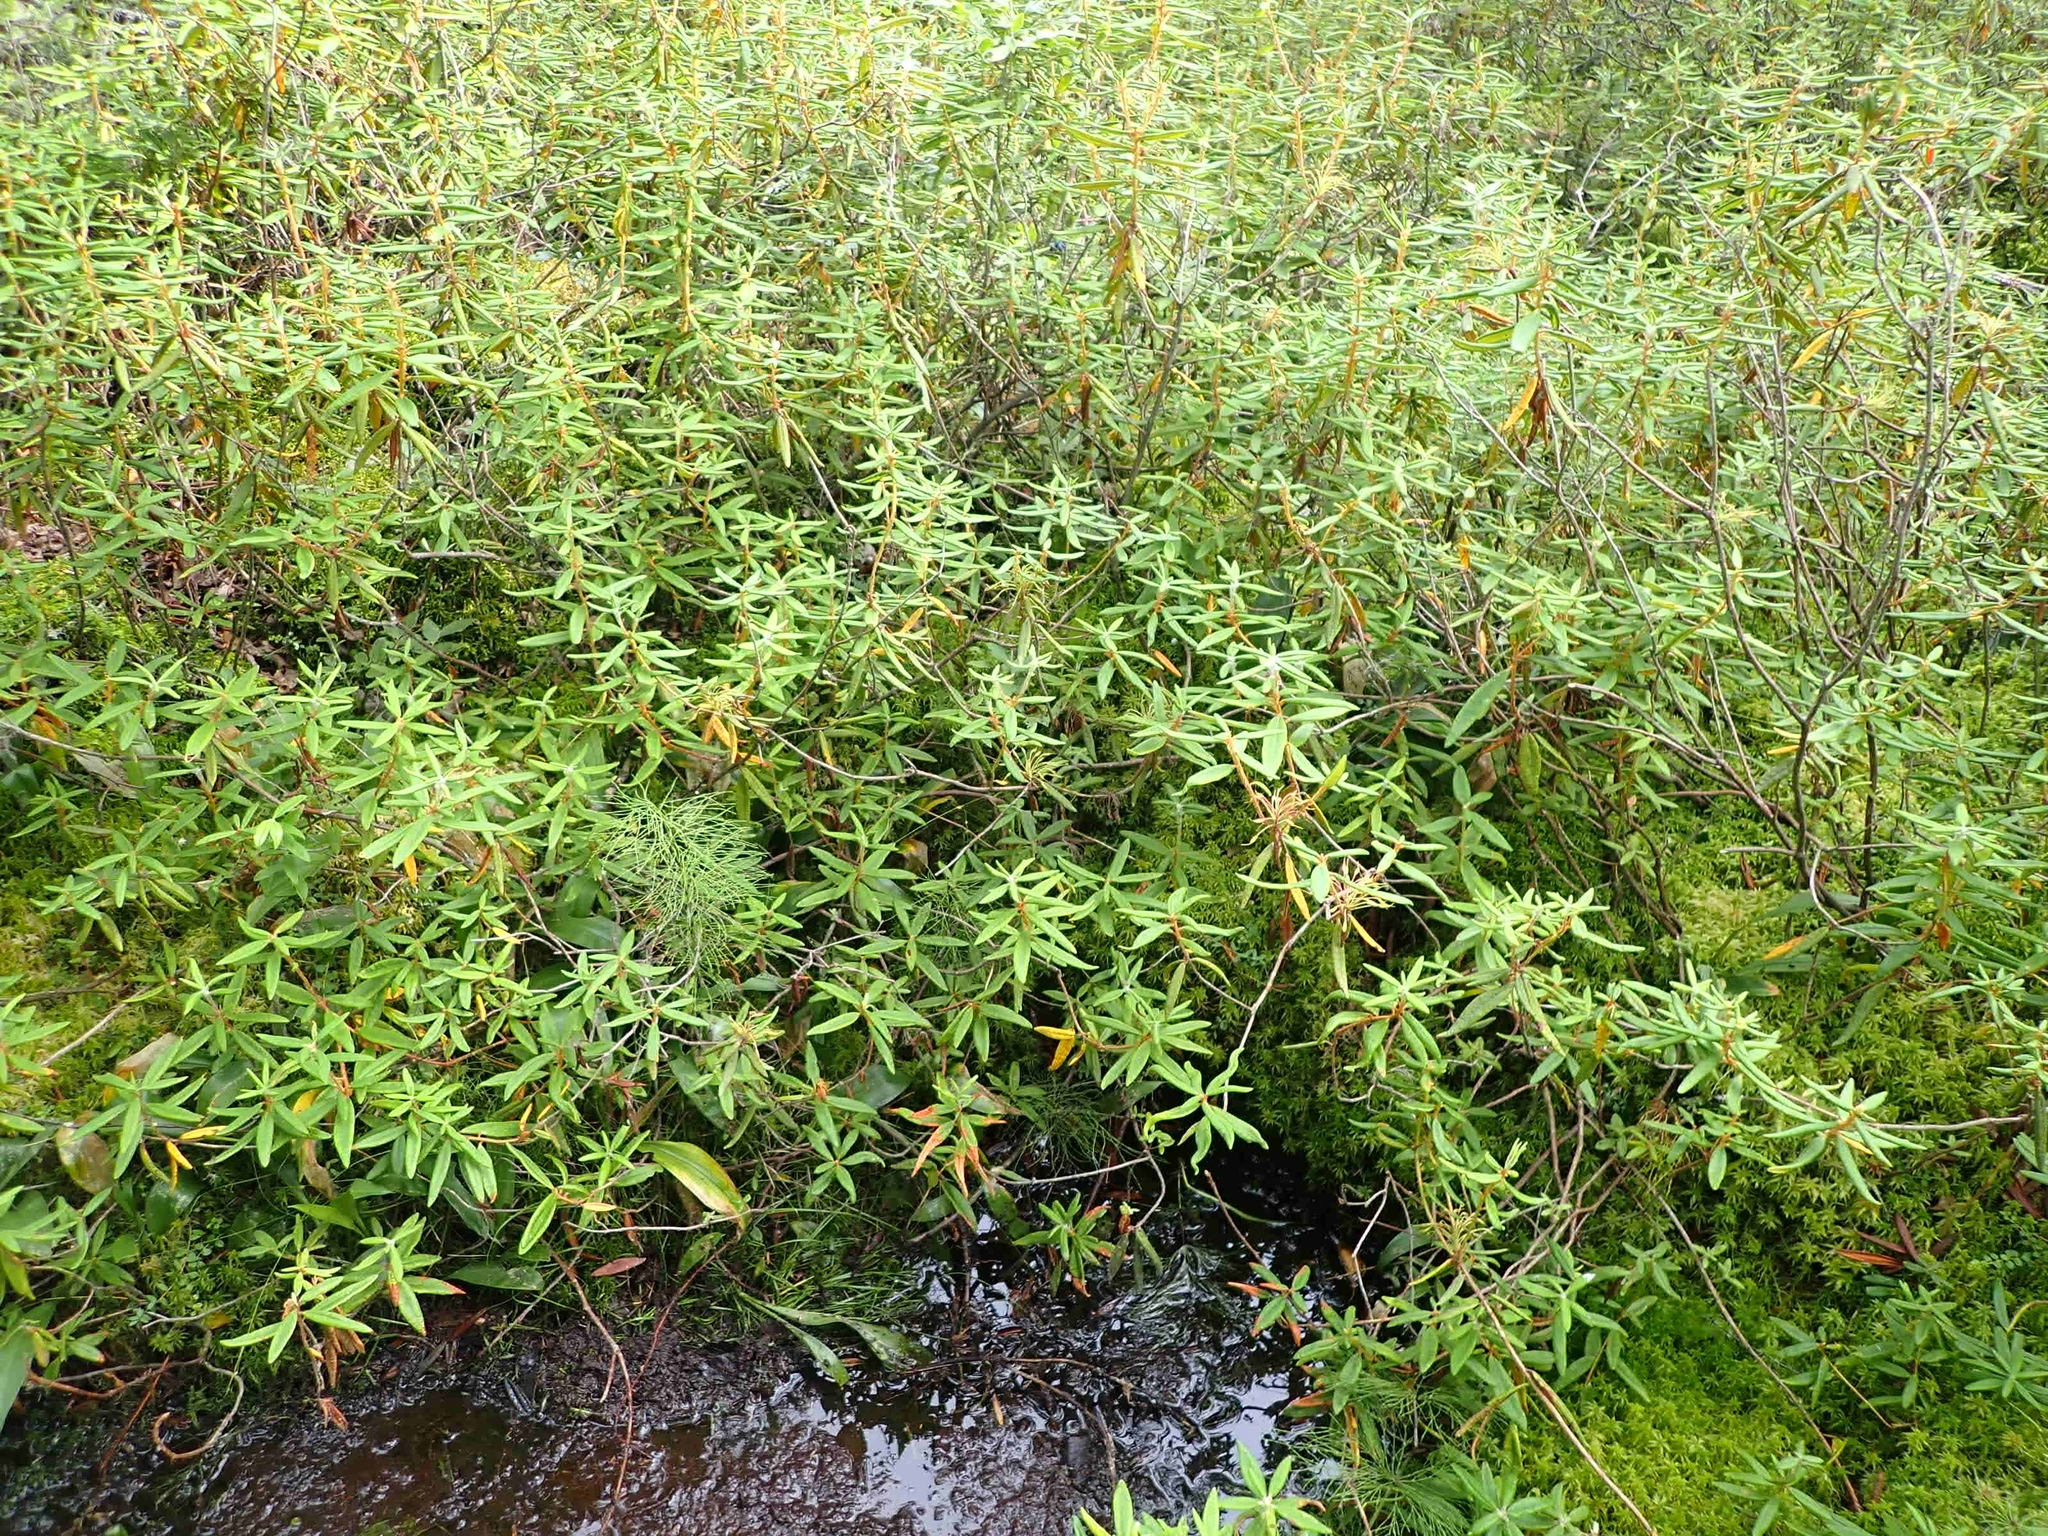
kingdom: Plantae
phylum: Tracheophyta
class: Magnoliopsida
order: Ericales
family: Ericaceae
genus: Rhododendron
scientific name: Rhododendron groenlandicum
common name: Bog labrador tea
